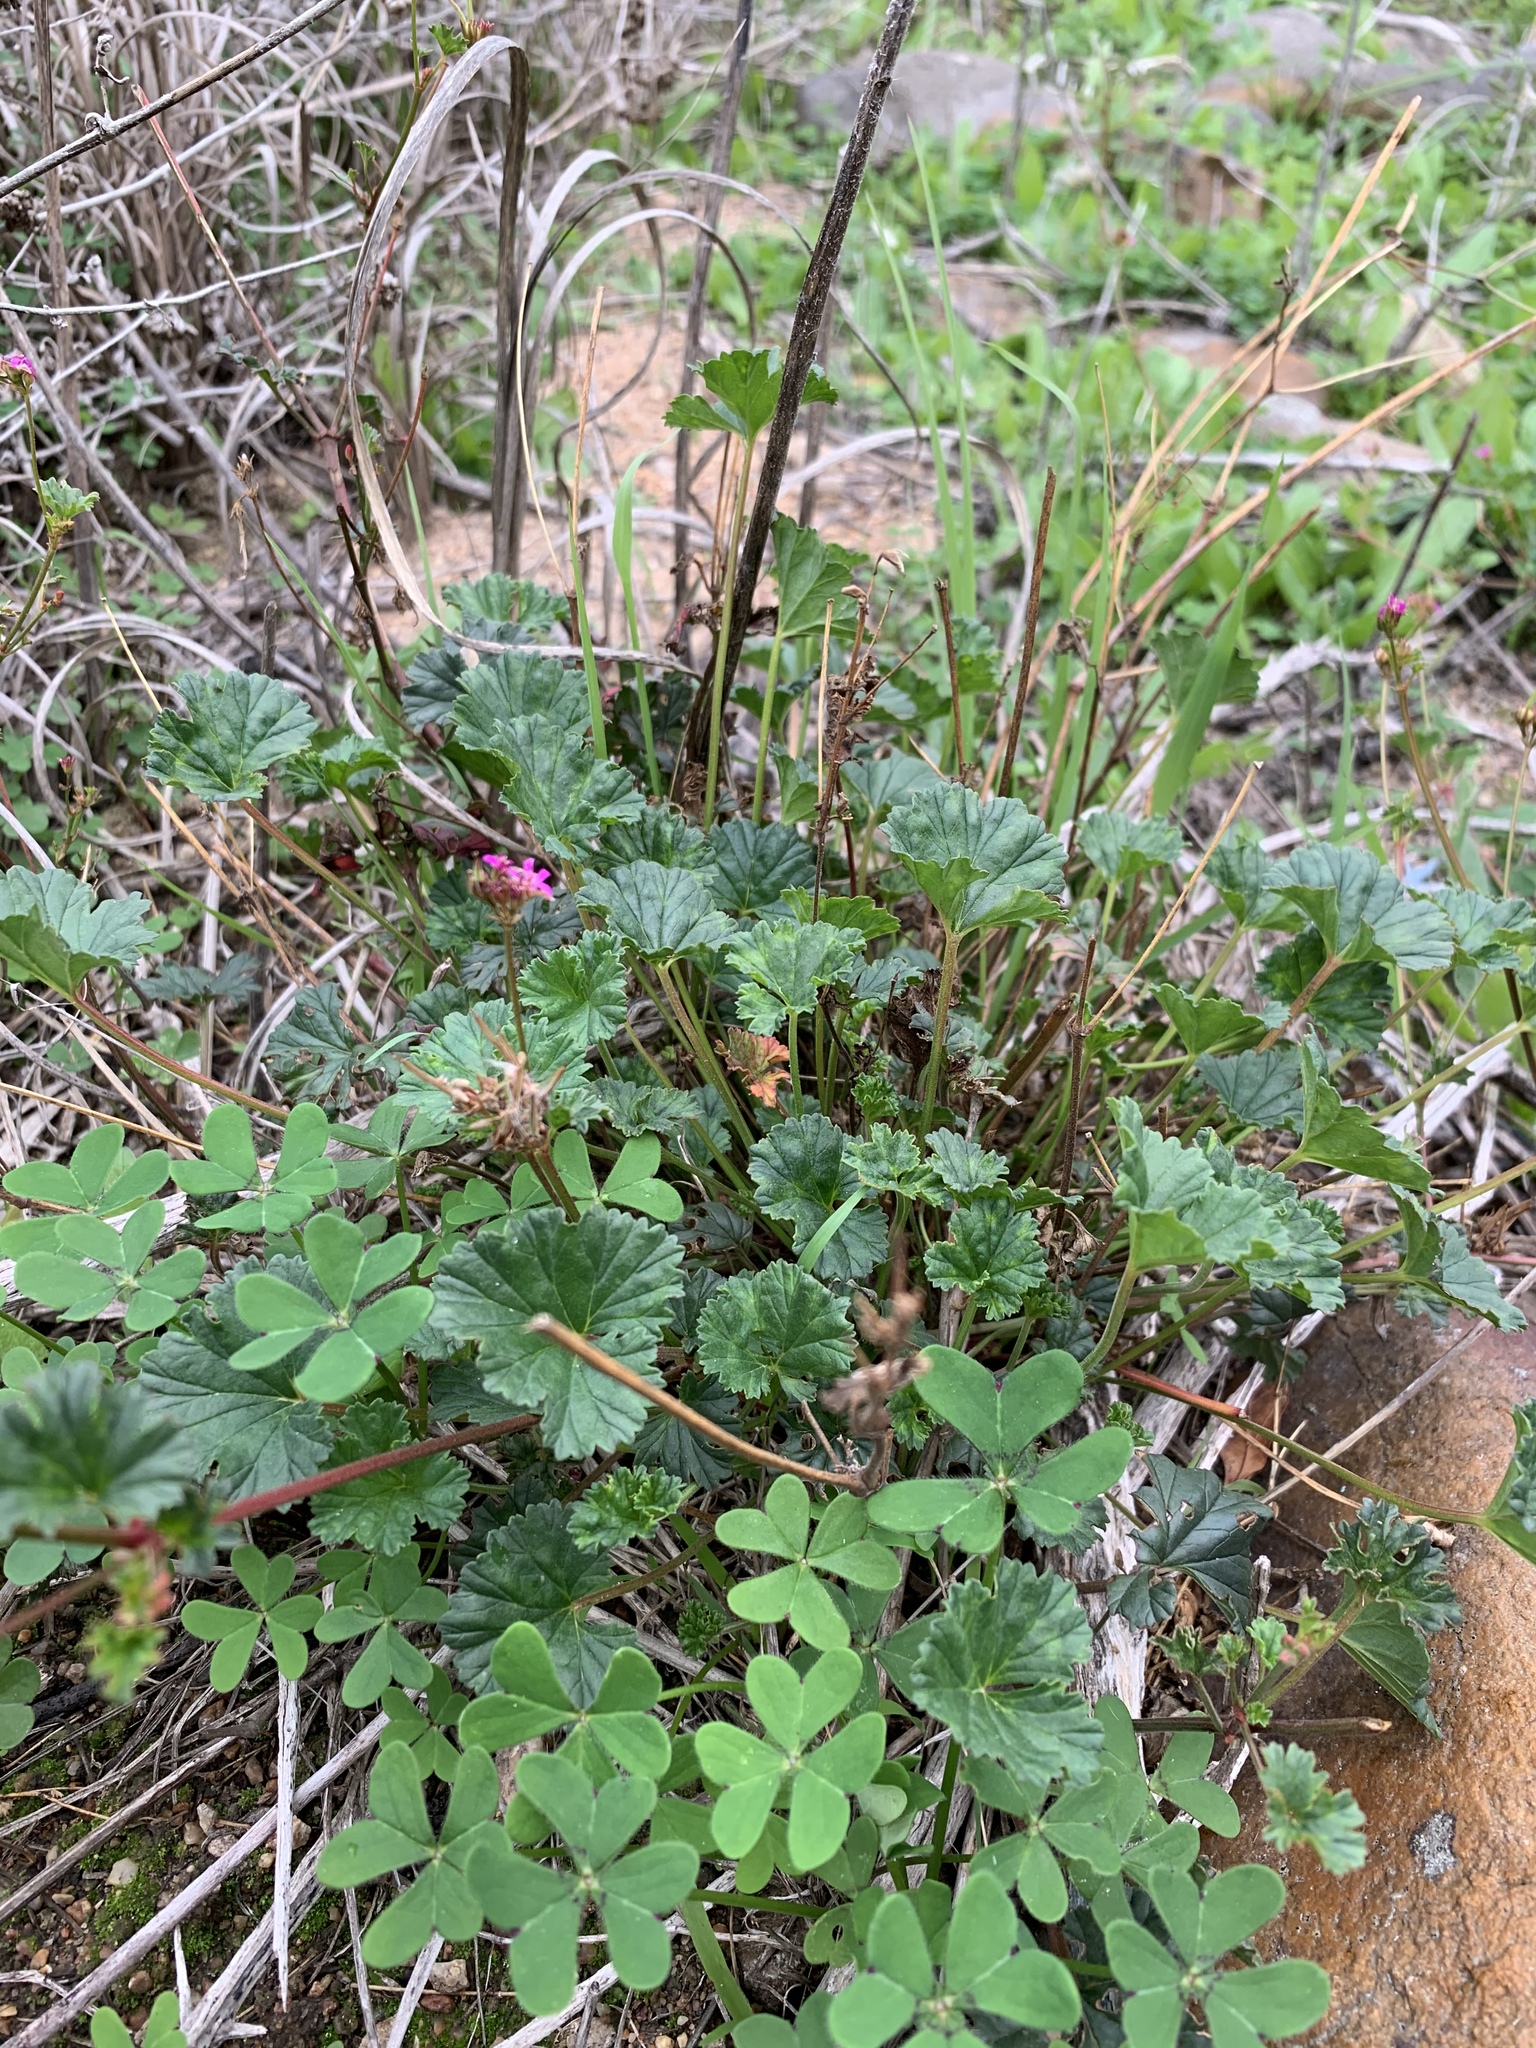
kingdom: Plantae
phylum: Tracheophyta
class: Magnoliopsida
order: Geraniales
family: Geraniaceae
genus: Pelargonium
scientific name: Pelargonium grossularioides
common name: Gooseberry geranium
